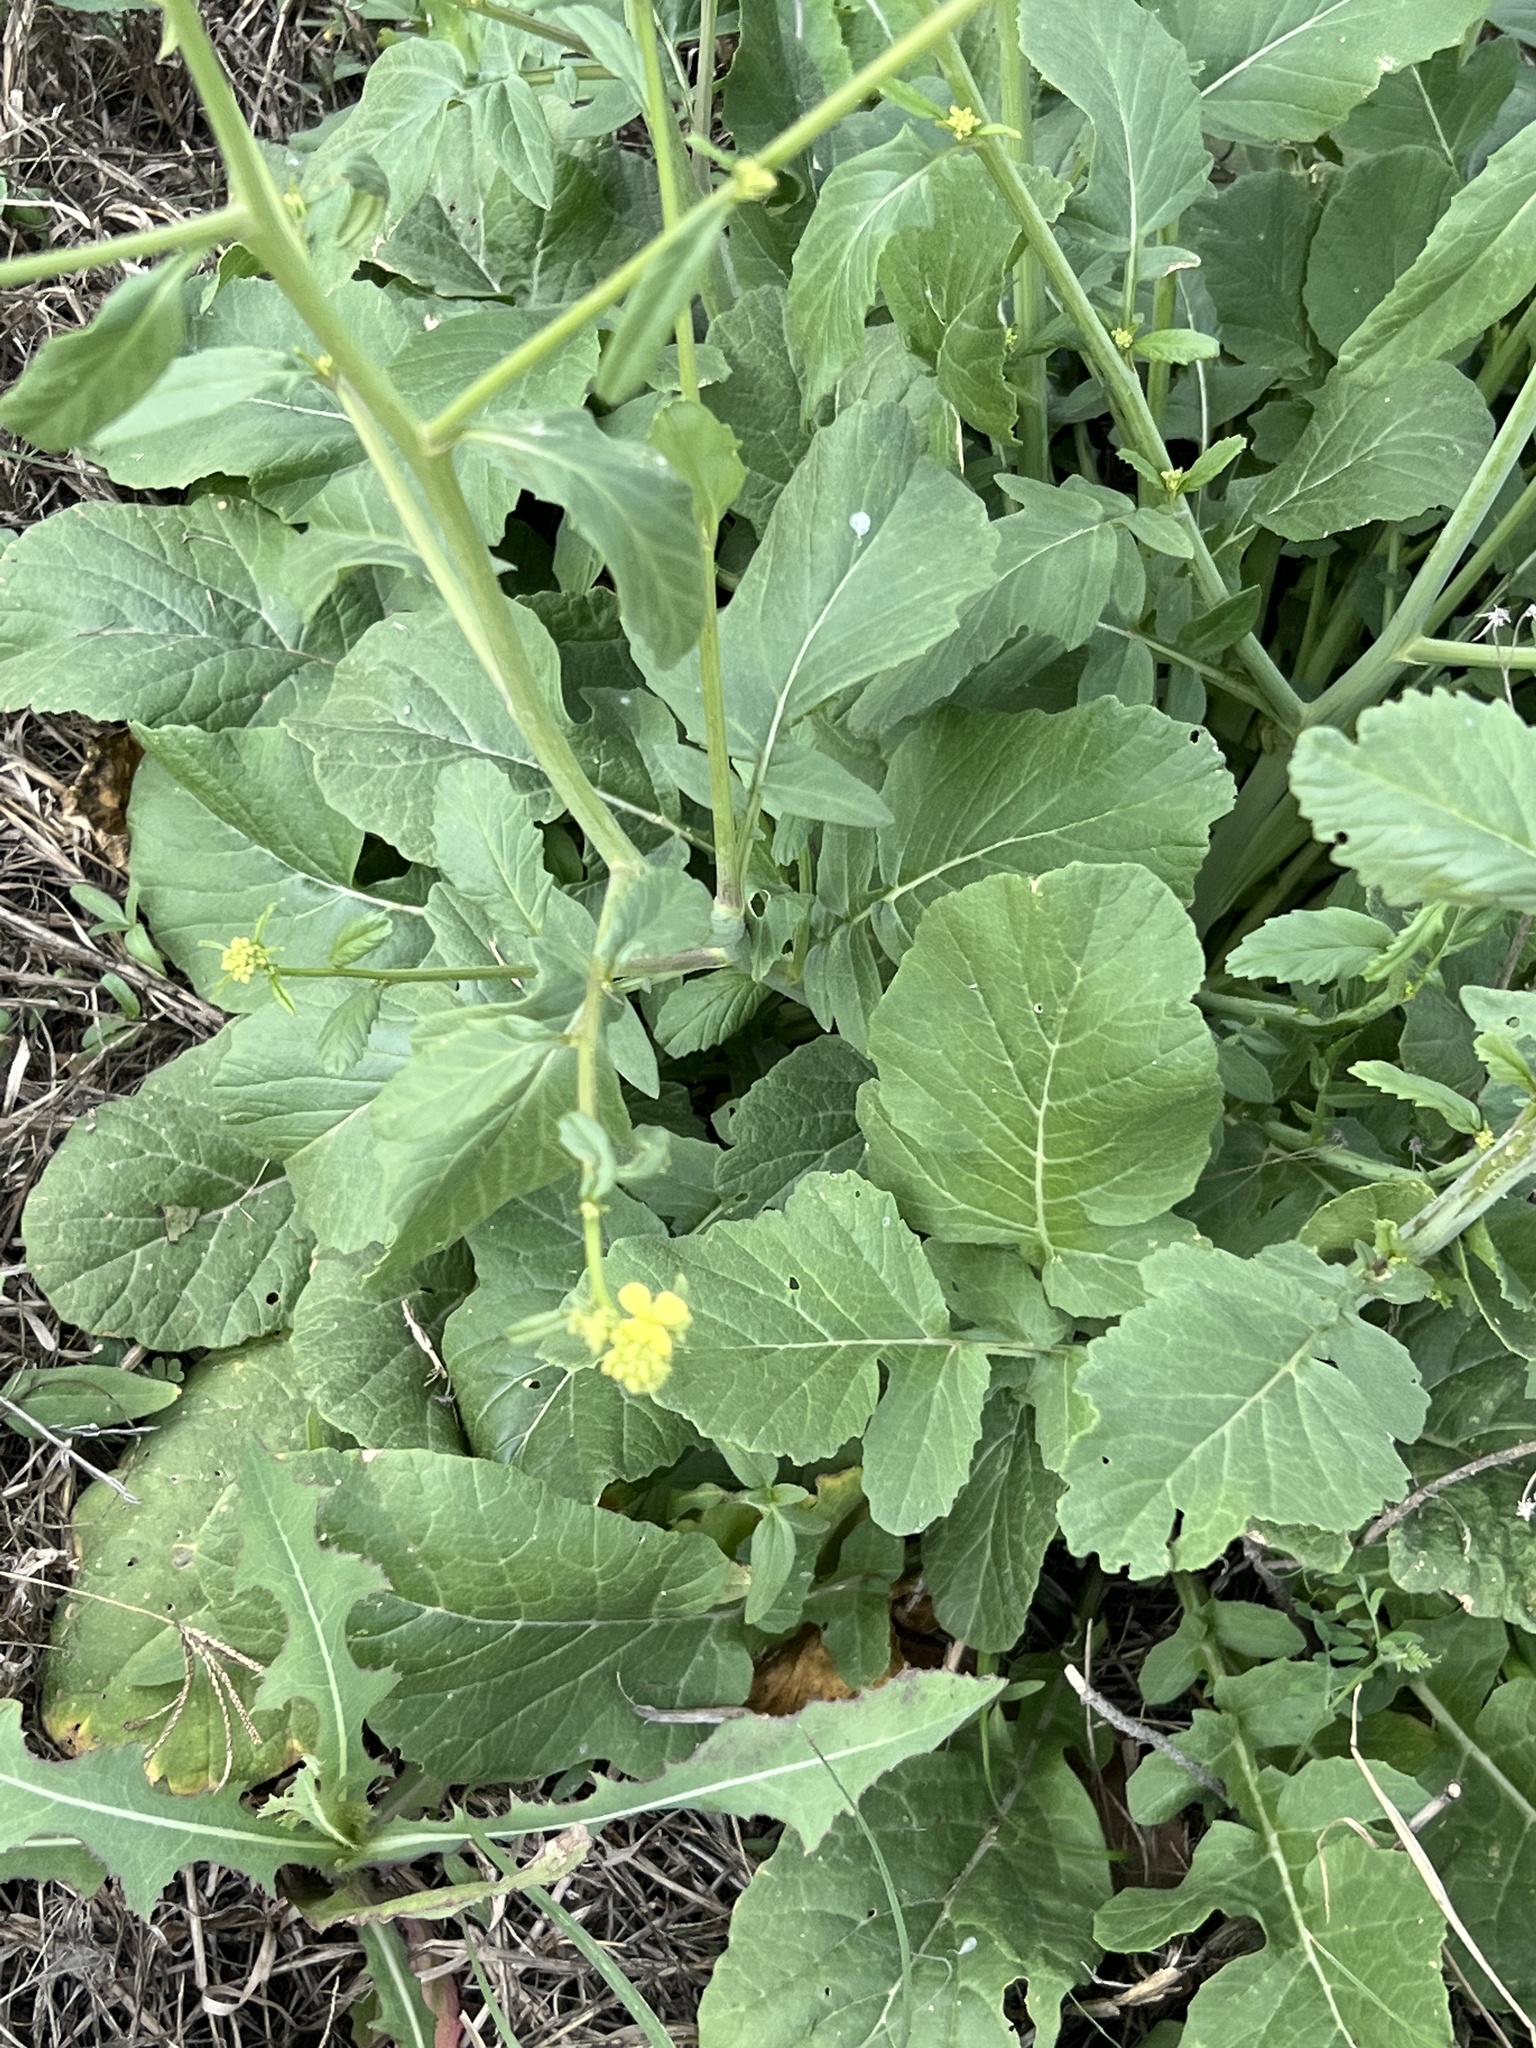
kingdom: Plantae
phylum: Tracheophyta
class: Magnoliopsida
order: Brassicales
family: Brassicaceae
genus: Rapistrum
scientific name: Rapistrum rugosum
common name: Annual bastardcabbage
